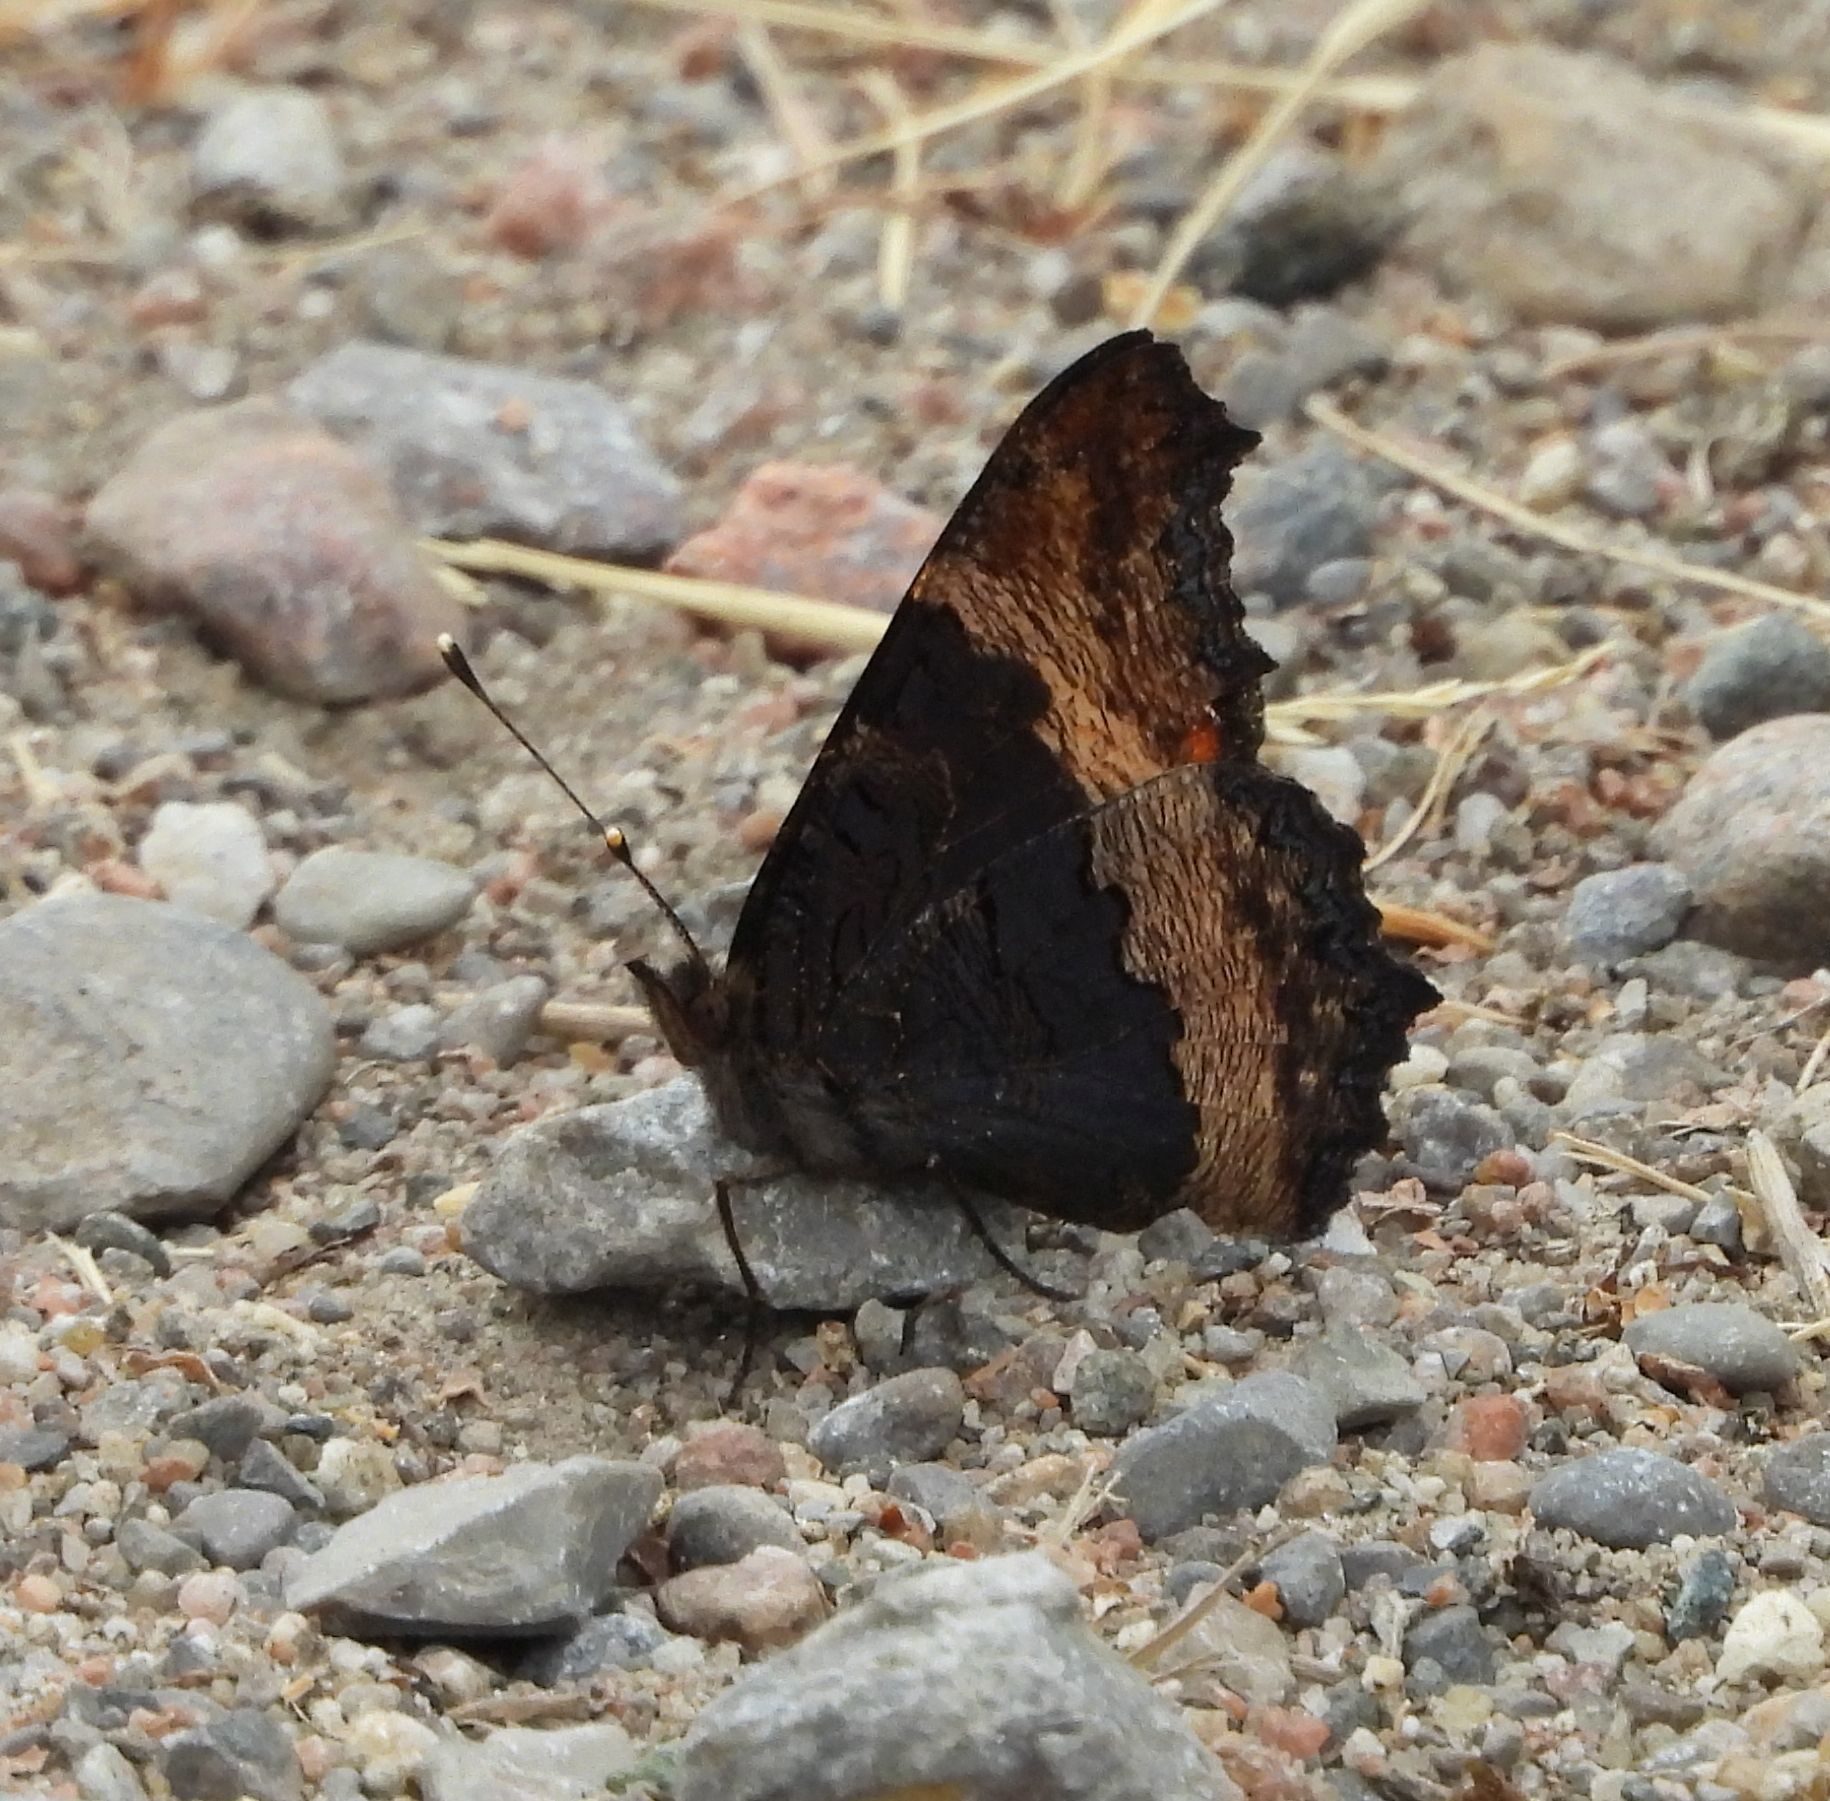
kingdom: Animalia
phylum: Arthropoda
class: Insecta
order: Lepidoptera
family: Nymphalidae
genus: Aglais
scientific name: Aglais milberti
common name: Milbert's tortoiseshell
